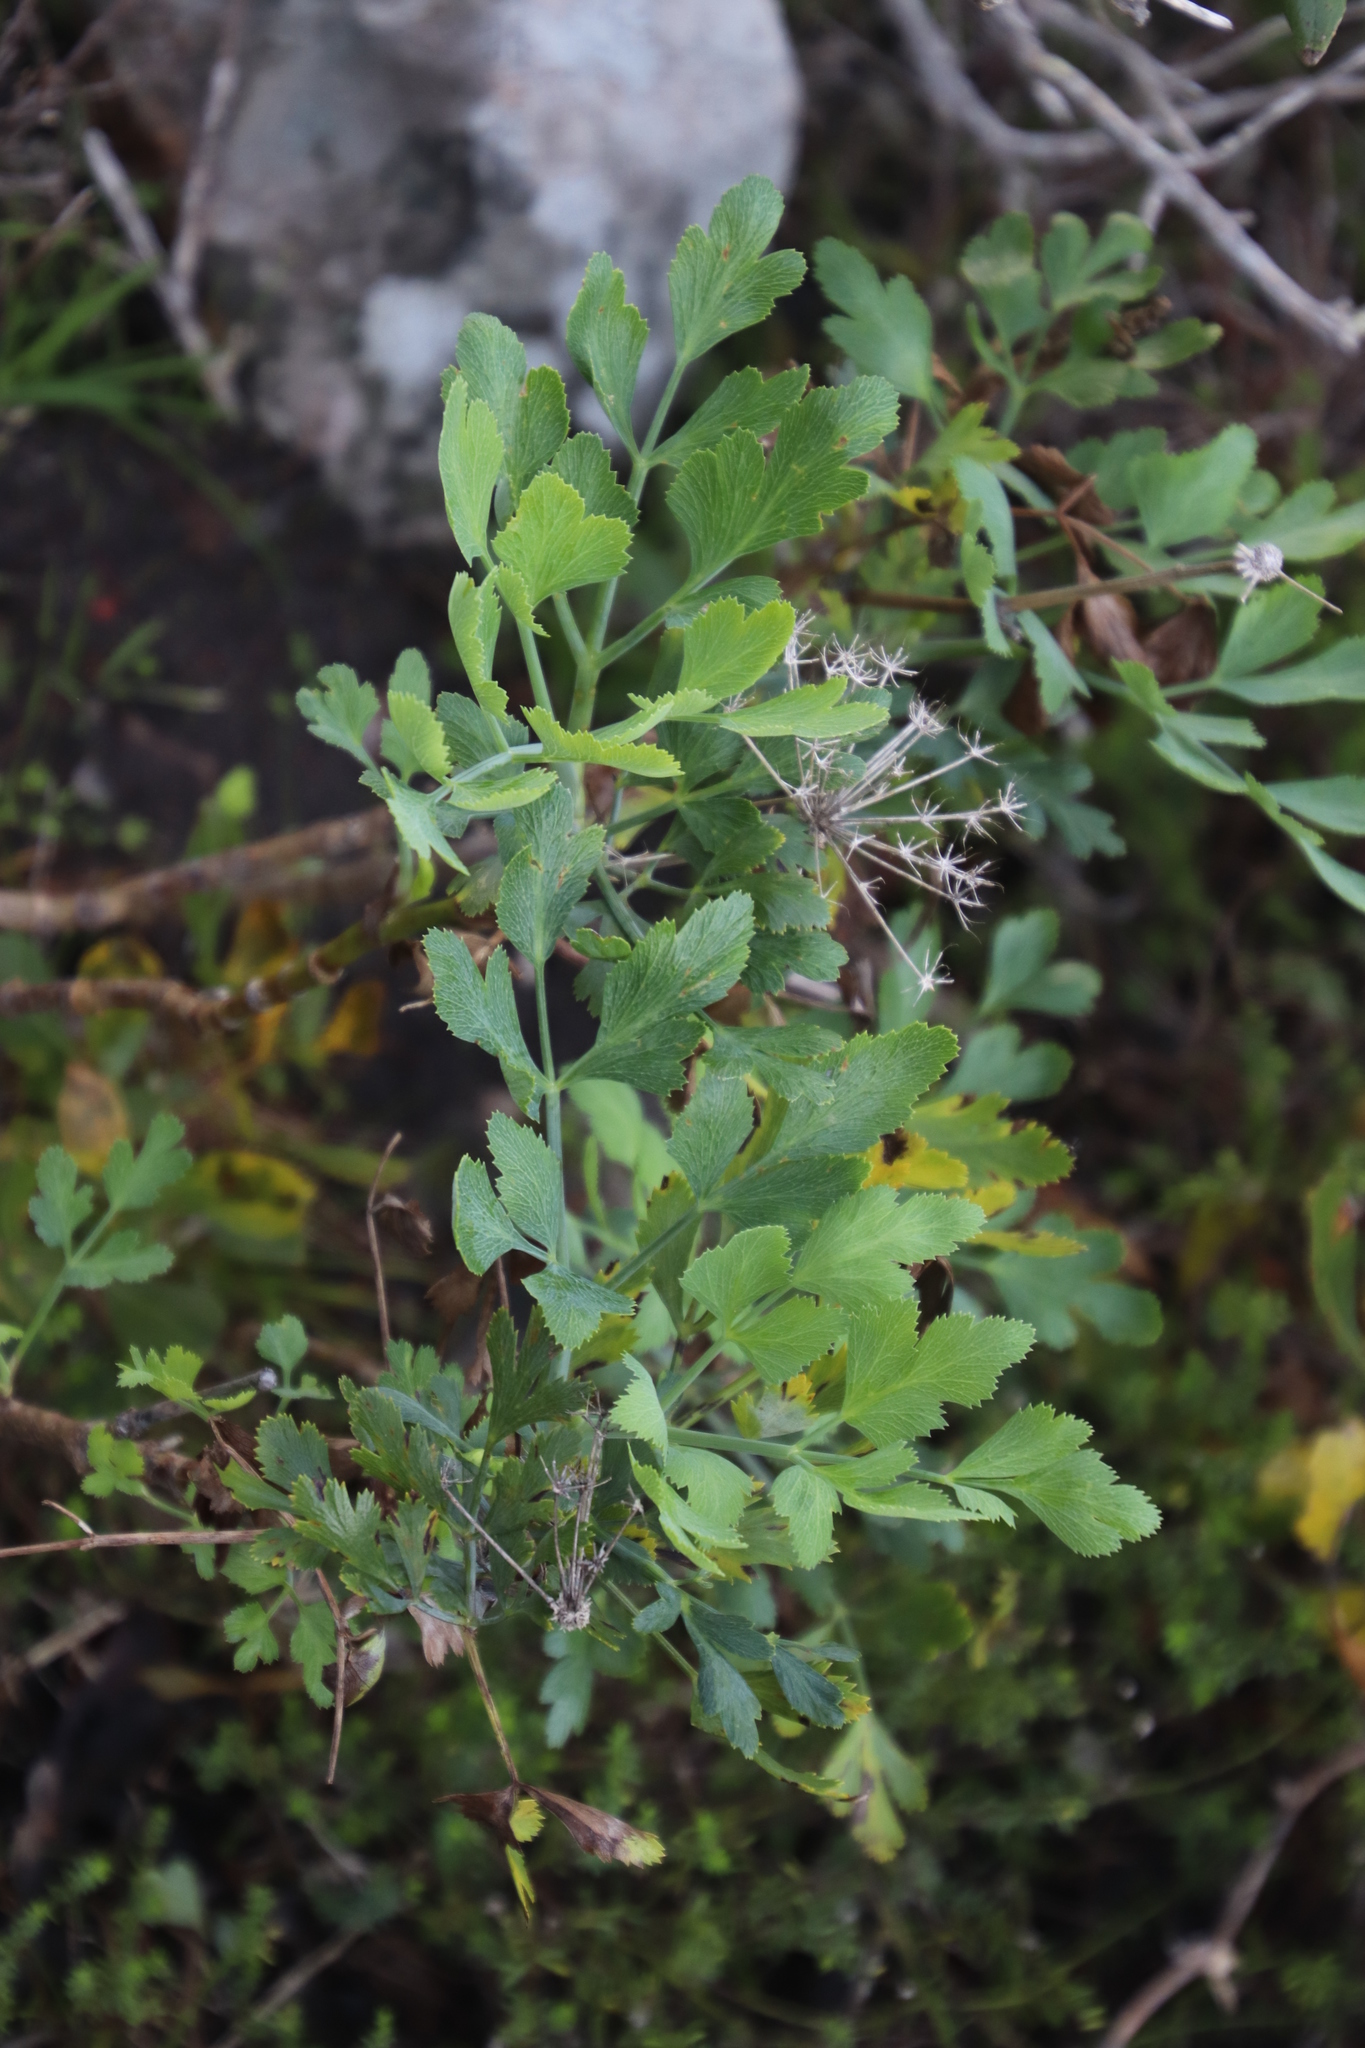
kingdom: Plantae
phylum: Tracheophyta
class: Magnoliopsida
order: Apiales
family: Apiaceae
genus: Notobubon
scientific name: Notobubon galbanum
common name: Blisterbush
